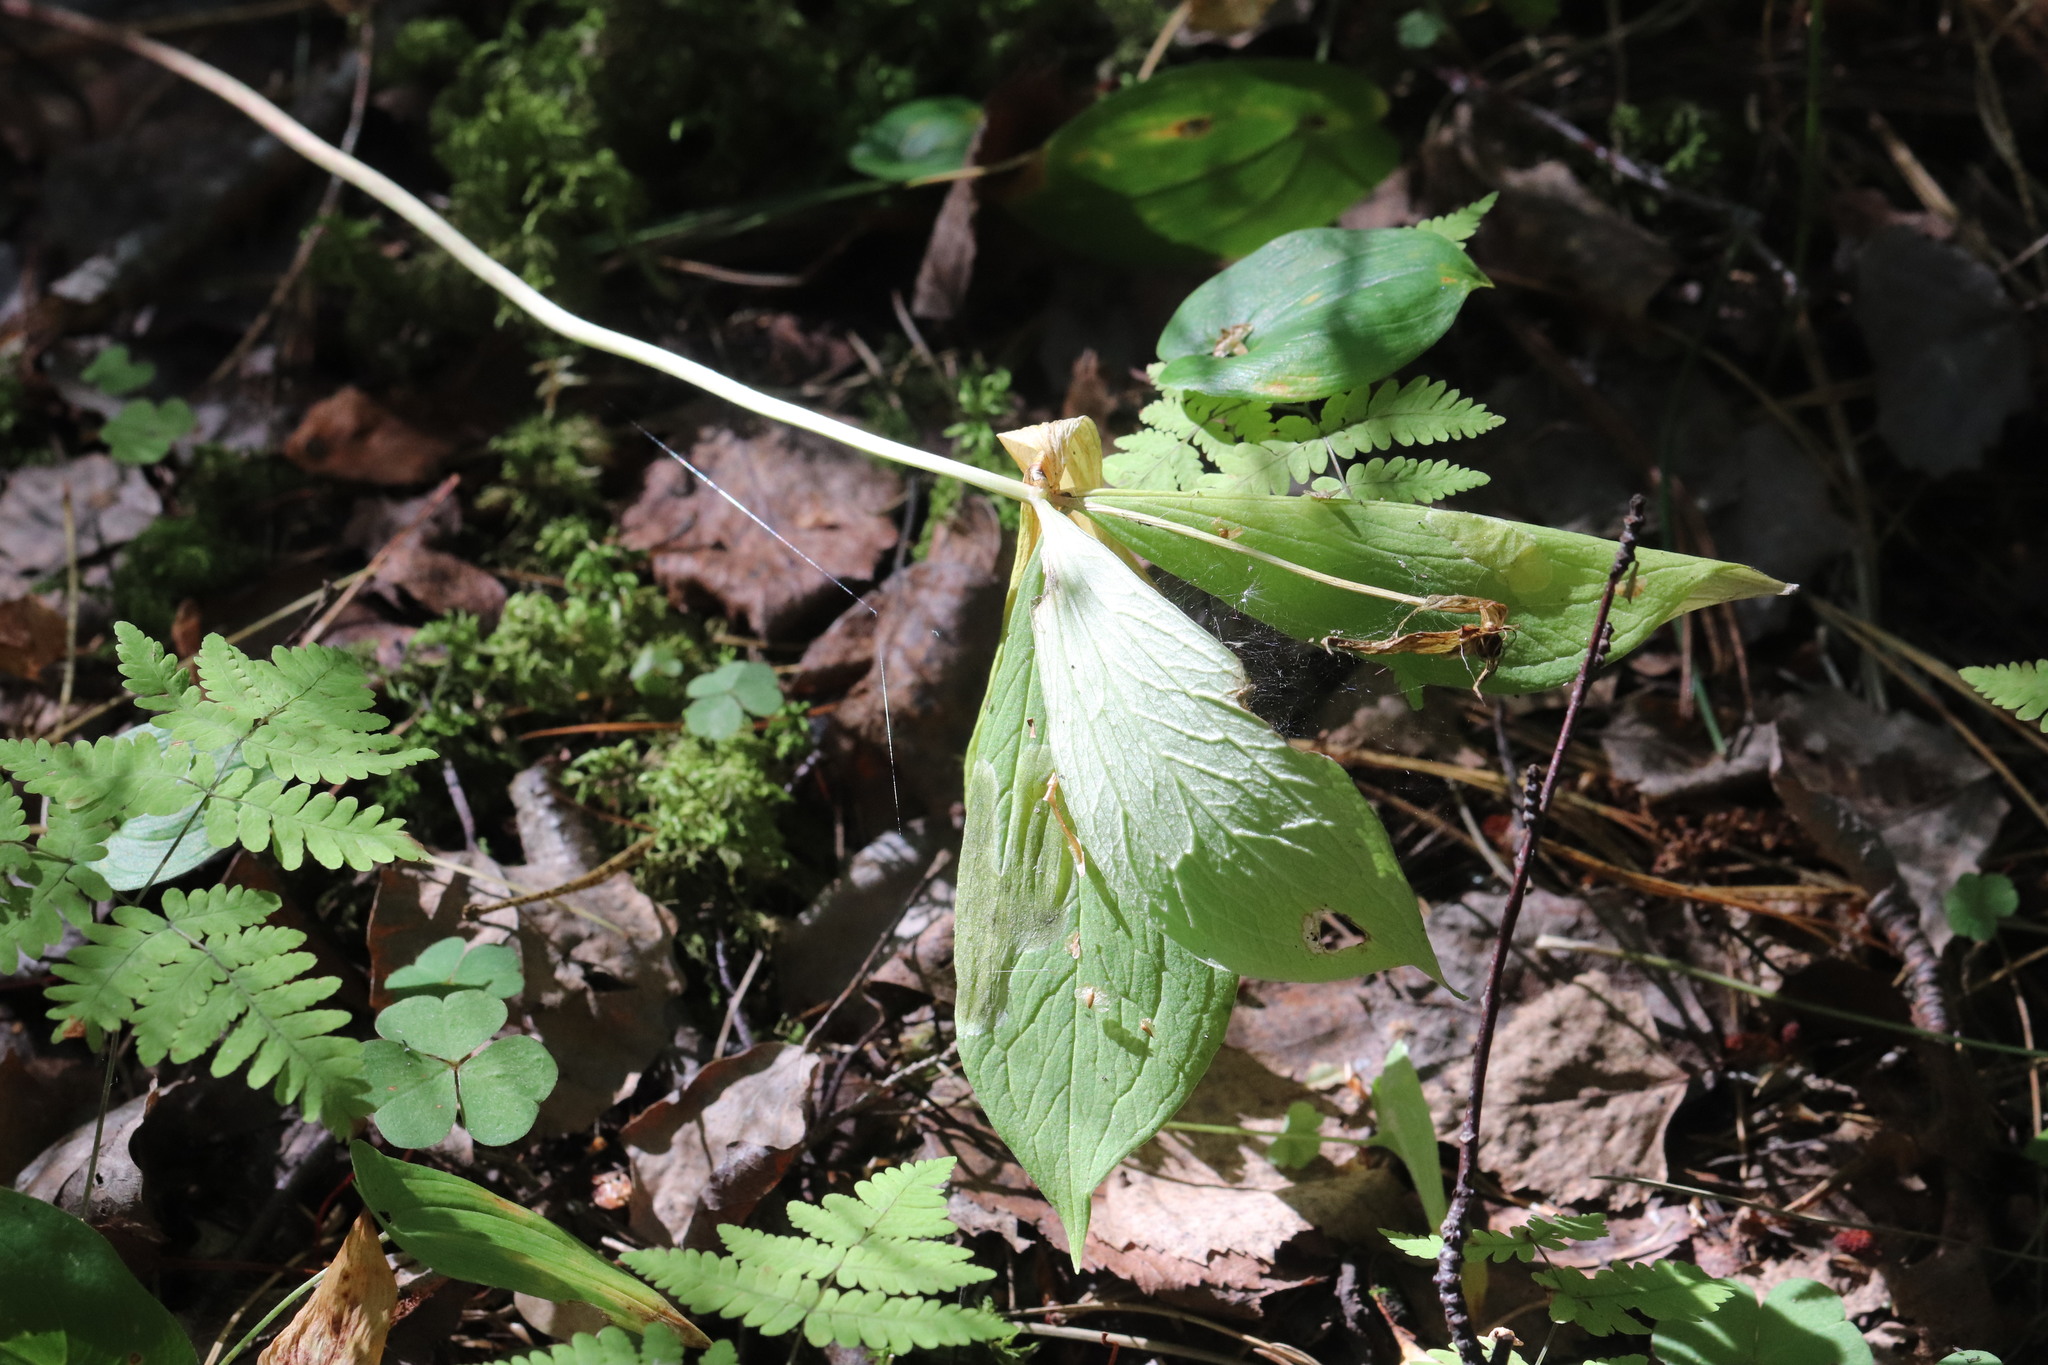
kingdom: Plantae
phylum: Tracheophyta
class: Liliopsida
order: Liliales
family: Melanthiaceae
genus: Paris
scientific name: Paris quadrifolia
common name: Herb-paris
